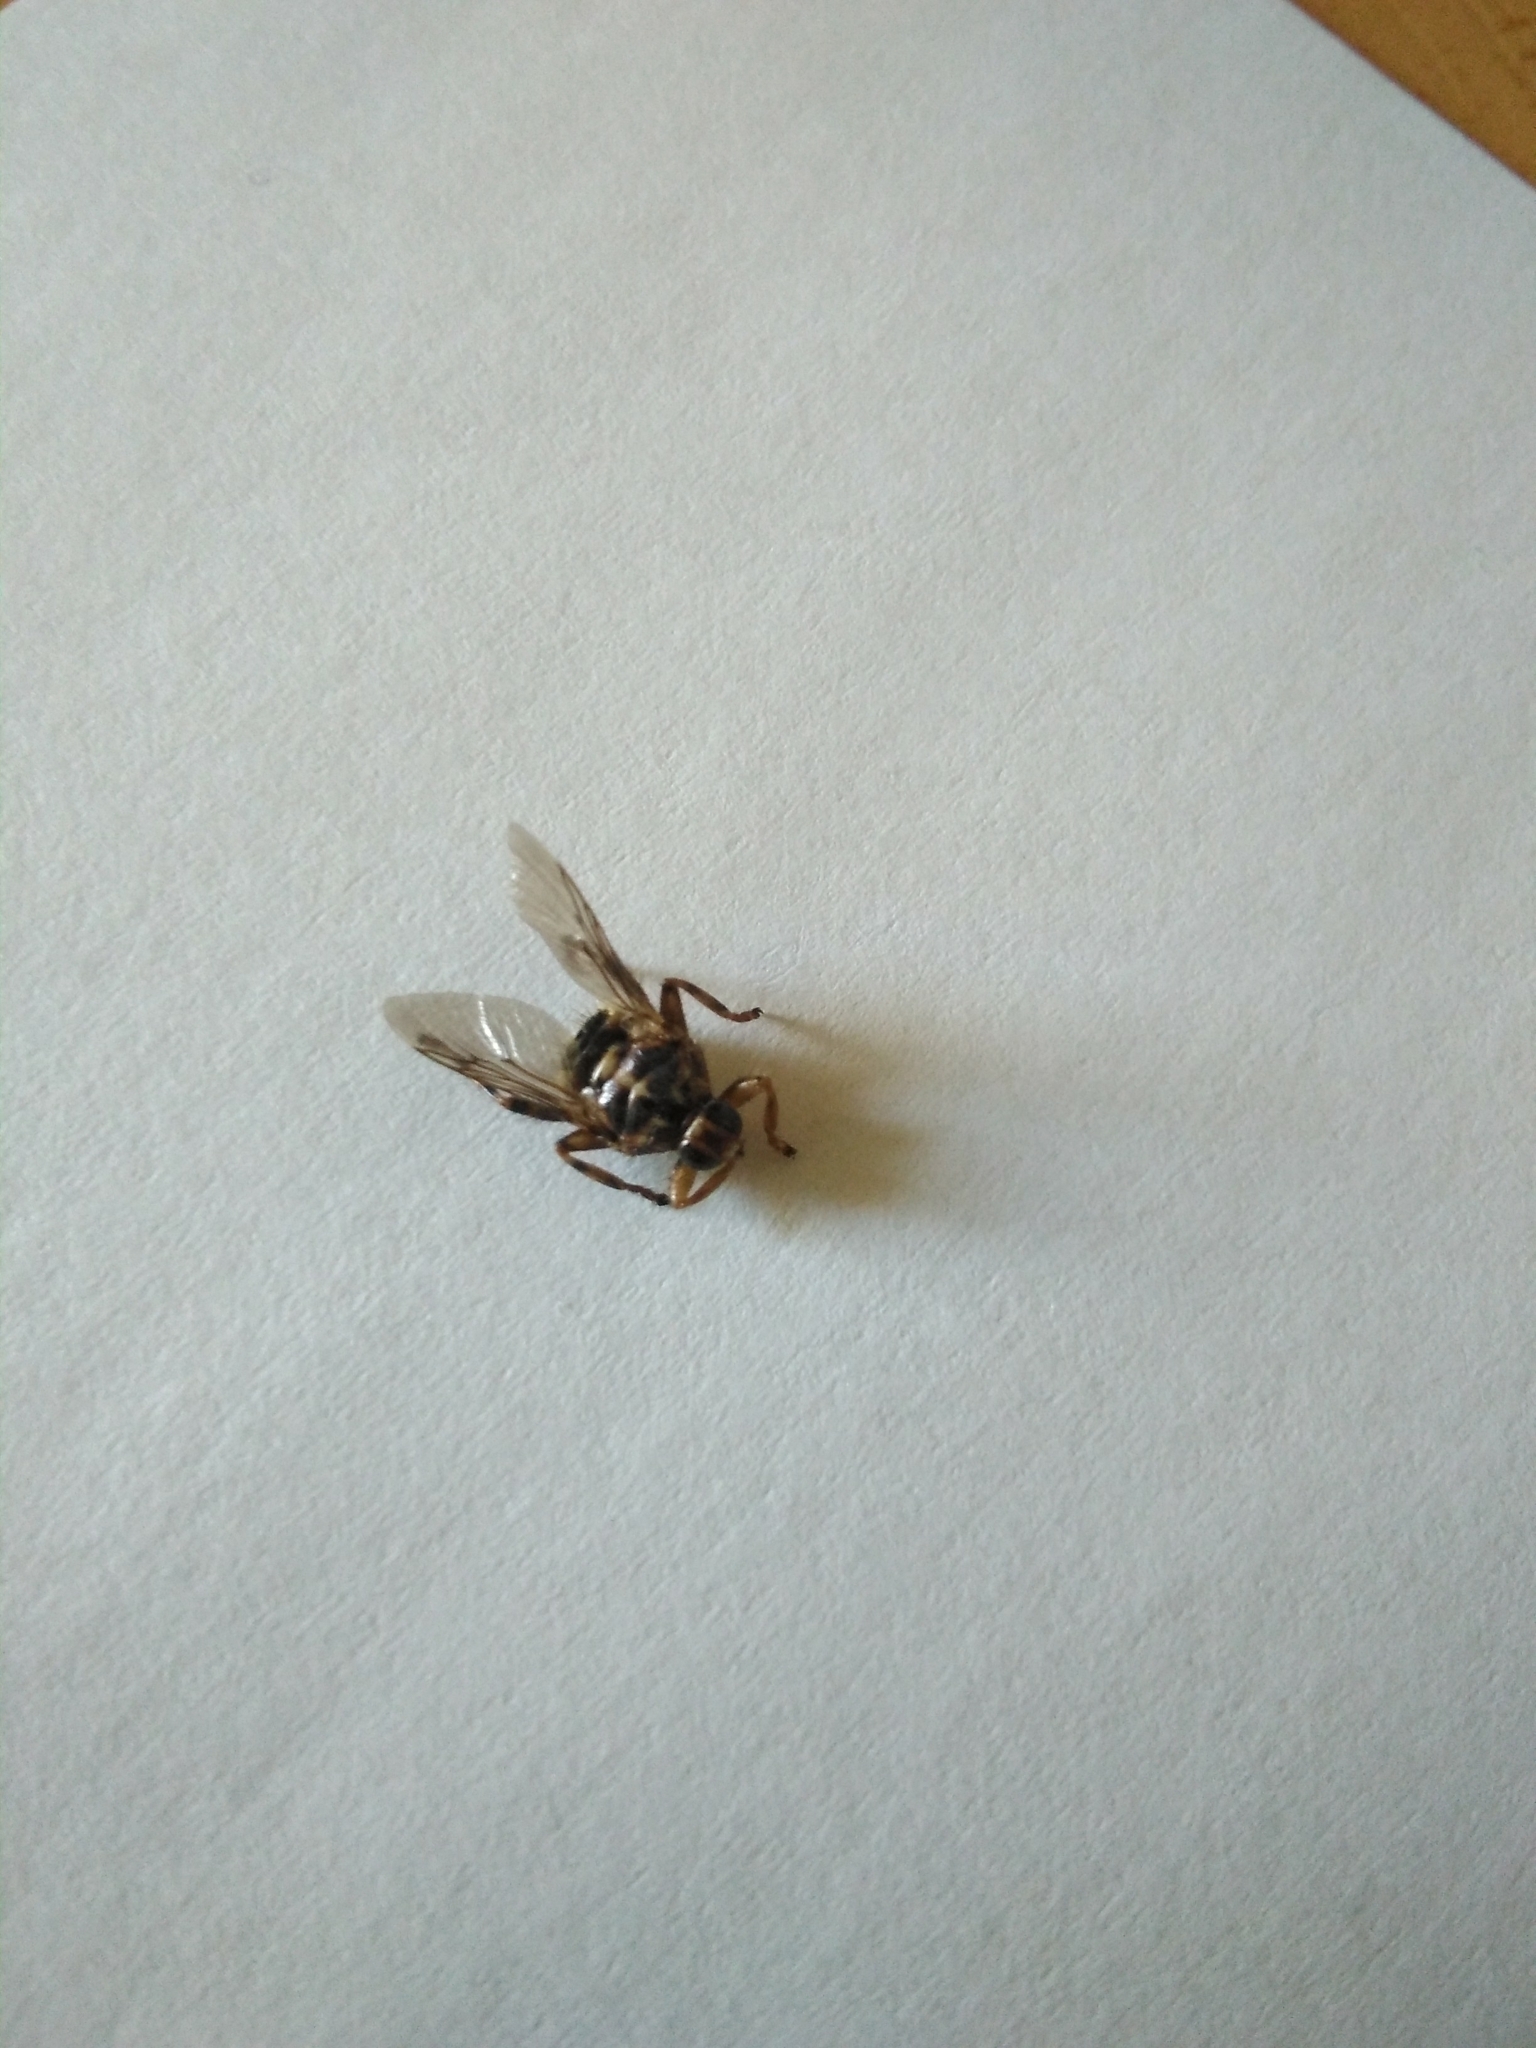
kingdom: Animalia
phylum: Arthropoda
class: Insecta
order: Diptera
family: Hippoboscidae
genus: Hippobosca
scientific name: Hippobosca equina
